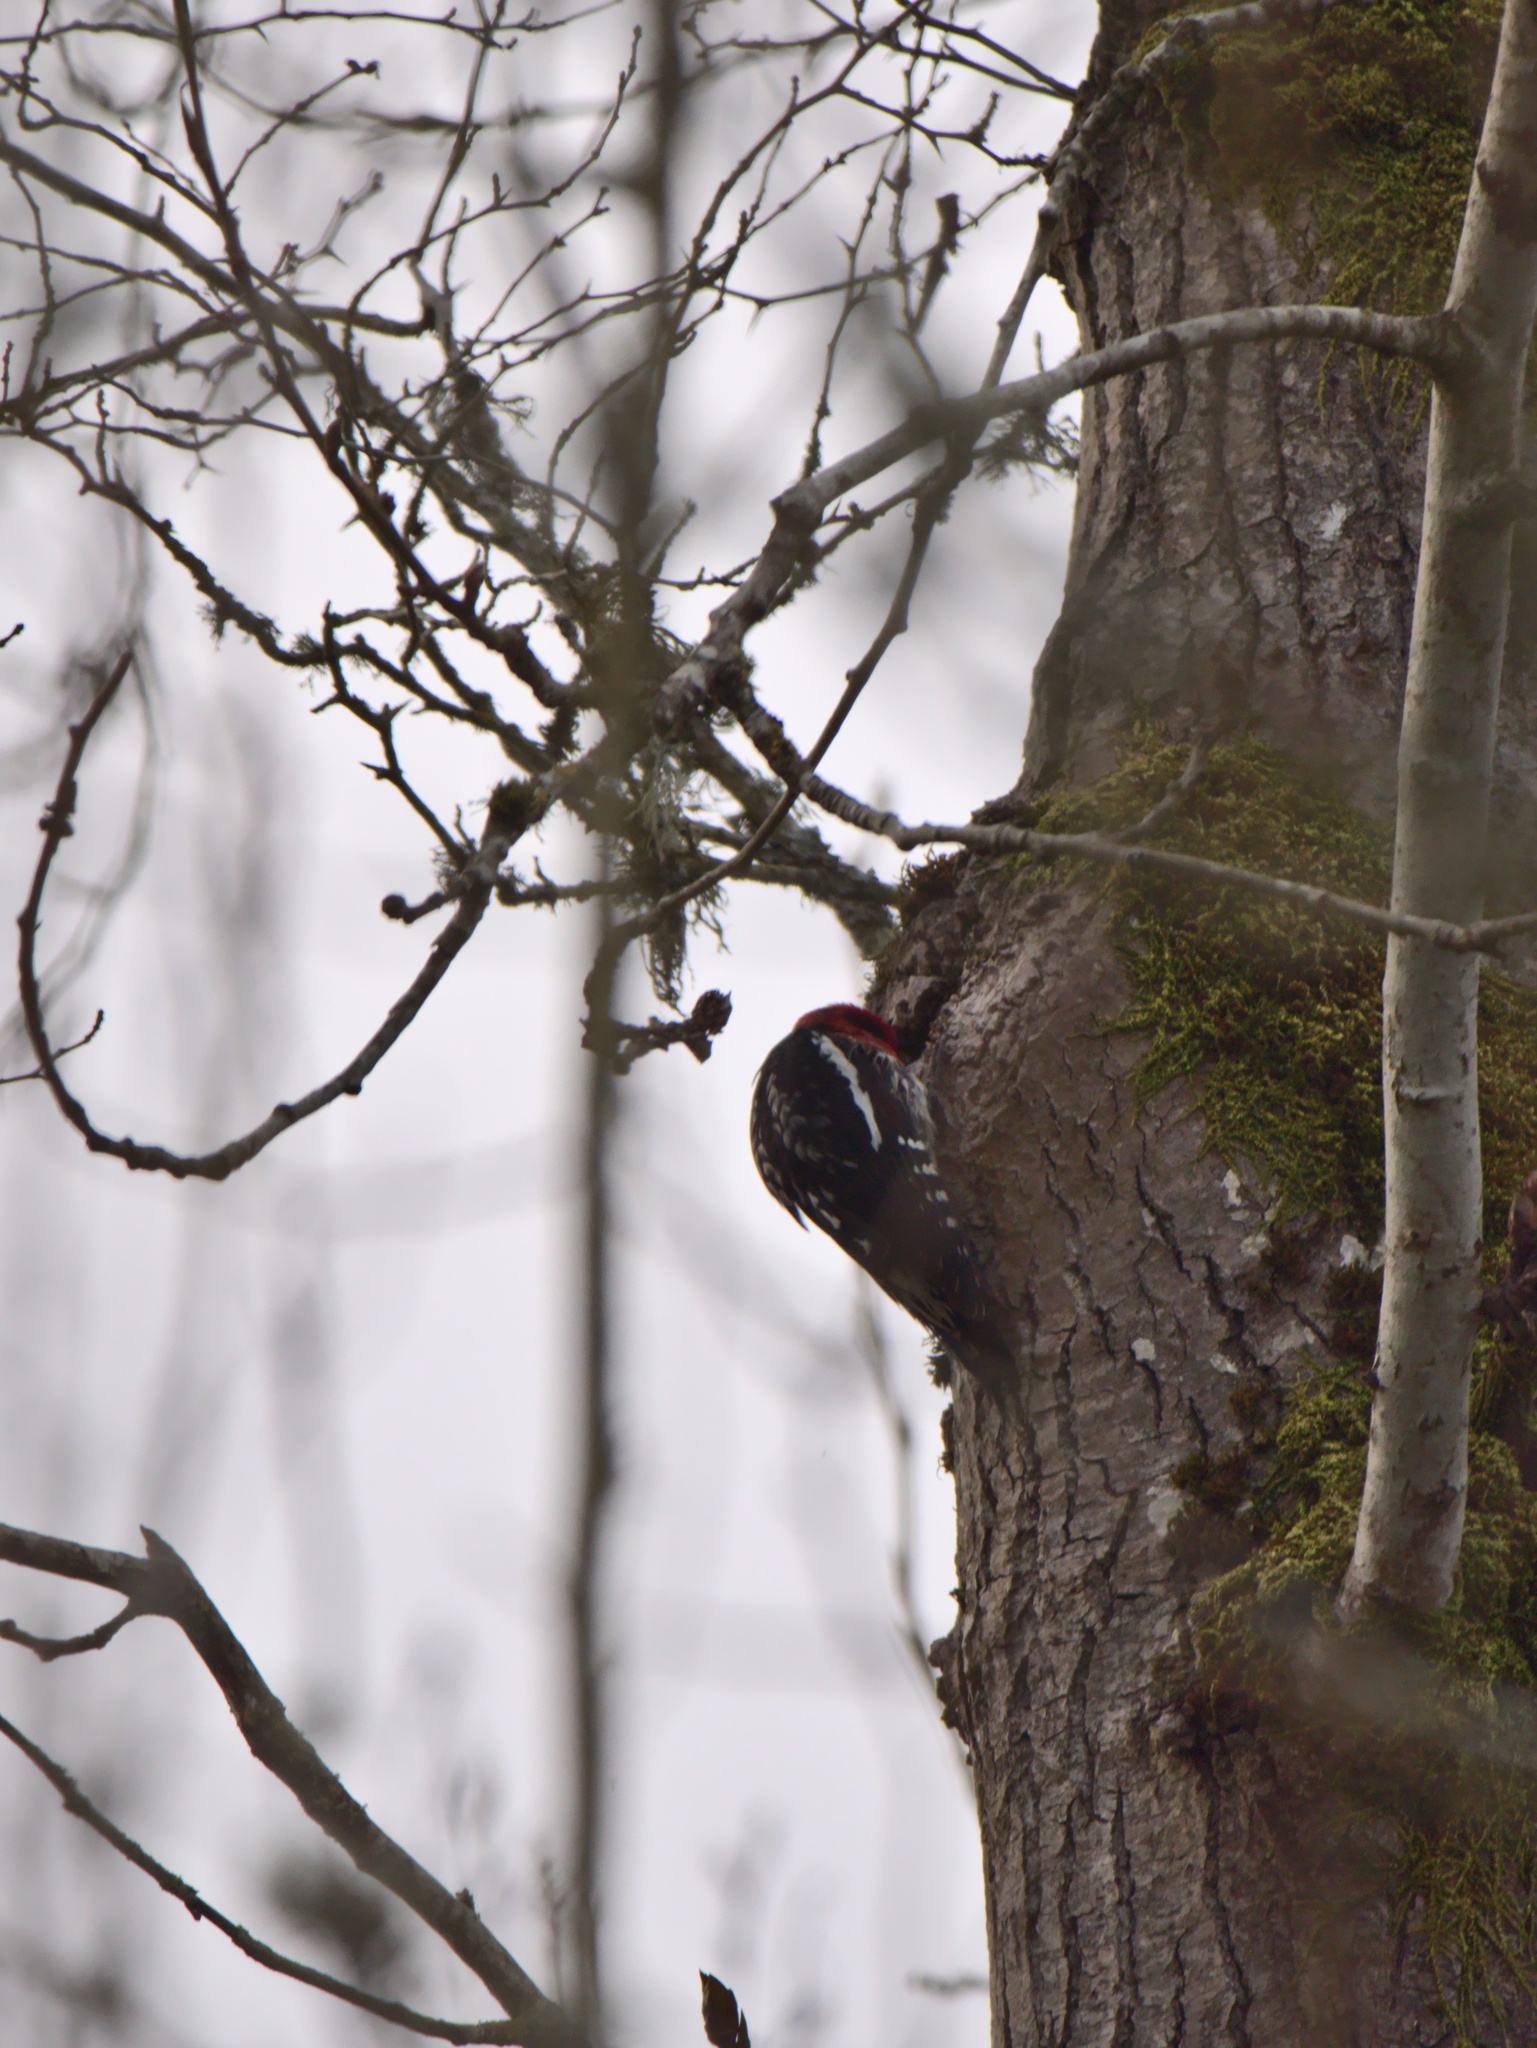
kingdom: Animalia
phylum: Chordata
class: Aves
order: Piciformes
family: Picidae
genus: Sphyrapicus
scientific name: Sphyrapicus ruber
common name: Red-breasted sapsucker
